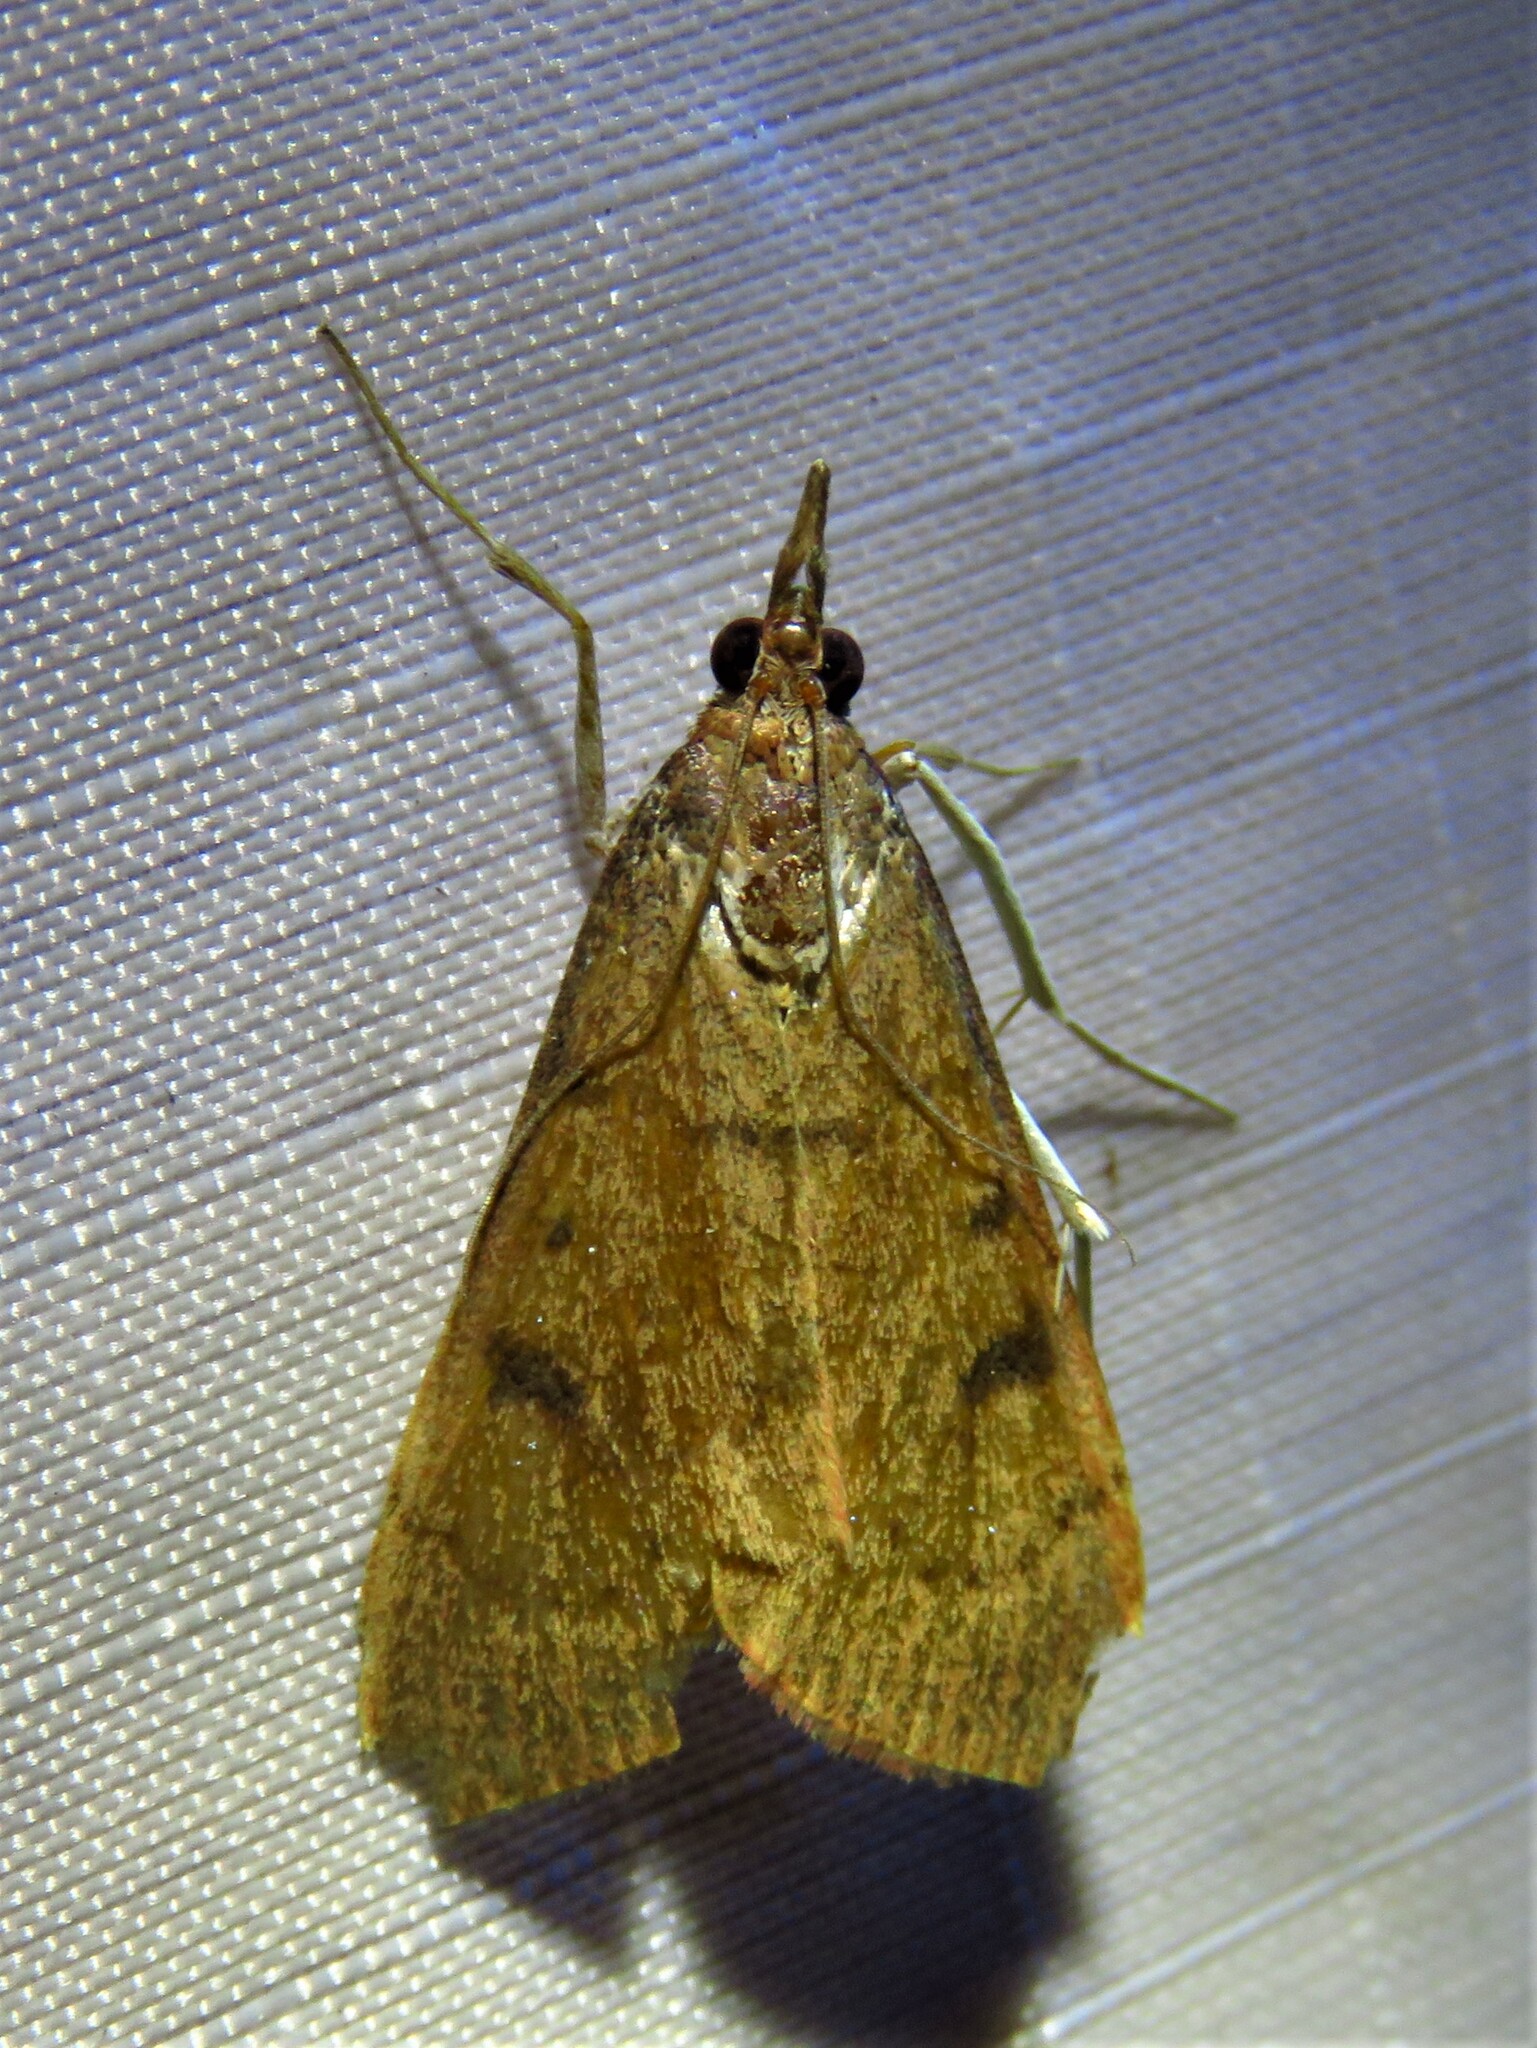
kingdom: Animalia
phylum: Arthropoda
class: Insecta
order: Lepidoptera
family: Crambidae
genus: Uresiphita
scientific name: Uresiphita reversalis
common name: Genista broom moth
